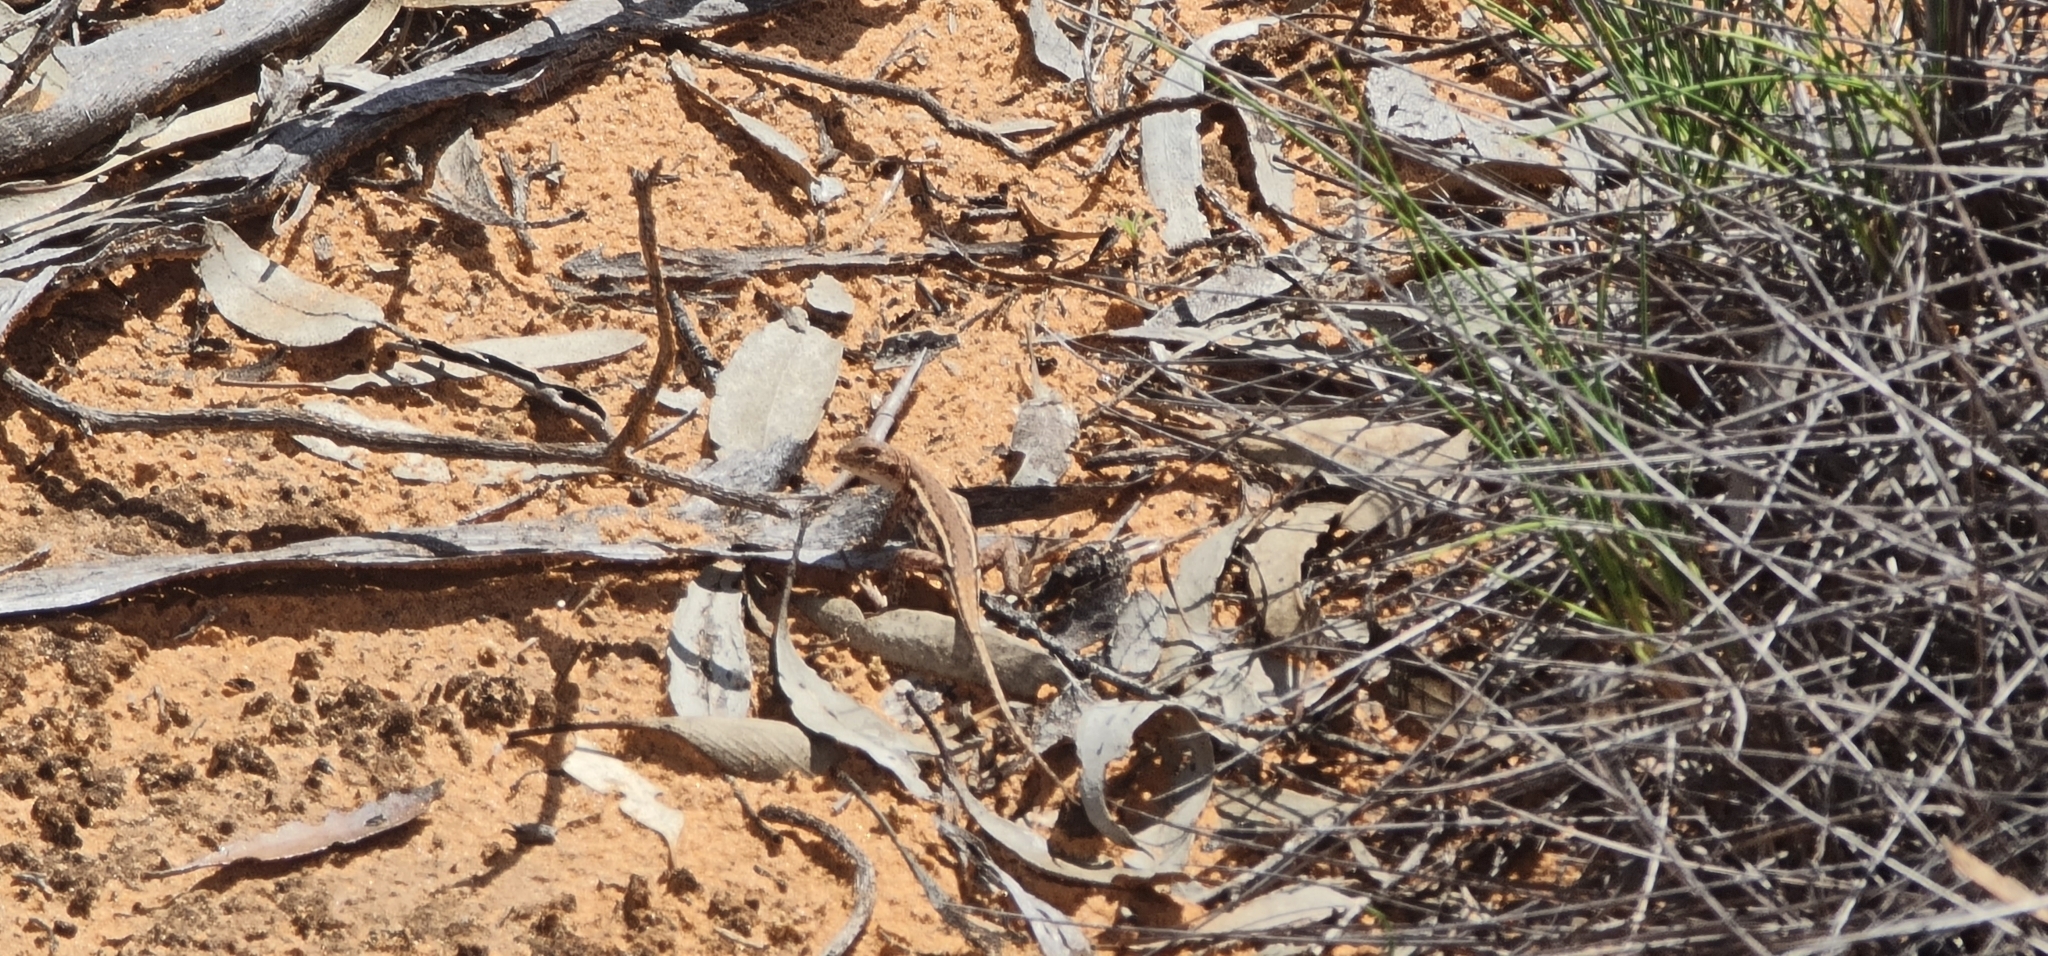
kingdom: Animalia
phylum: Chordata
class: Squamata
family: Agamidae
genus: Ctenophorus
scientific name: Ctenophorus spinodomus
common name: Eastern mallee dragon
